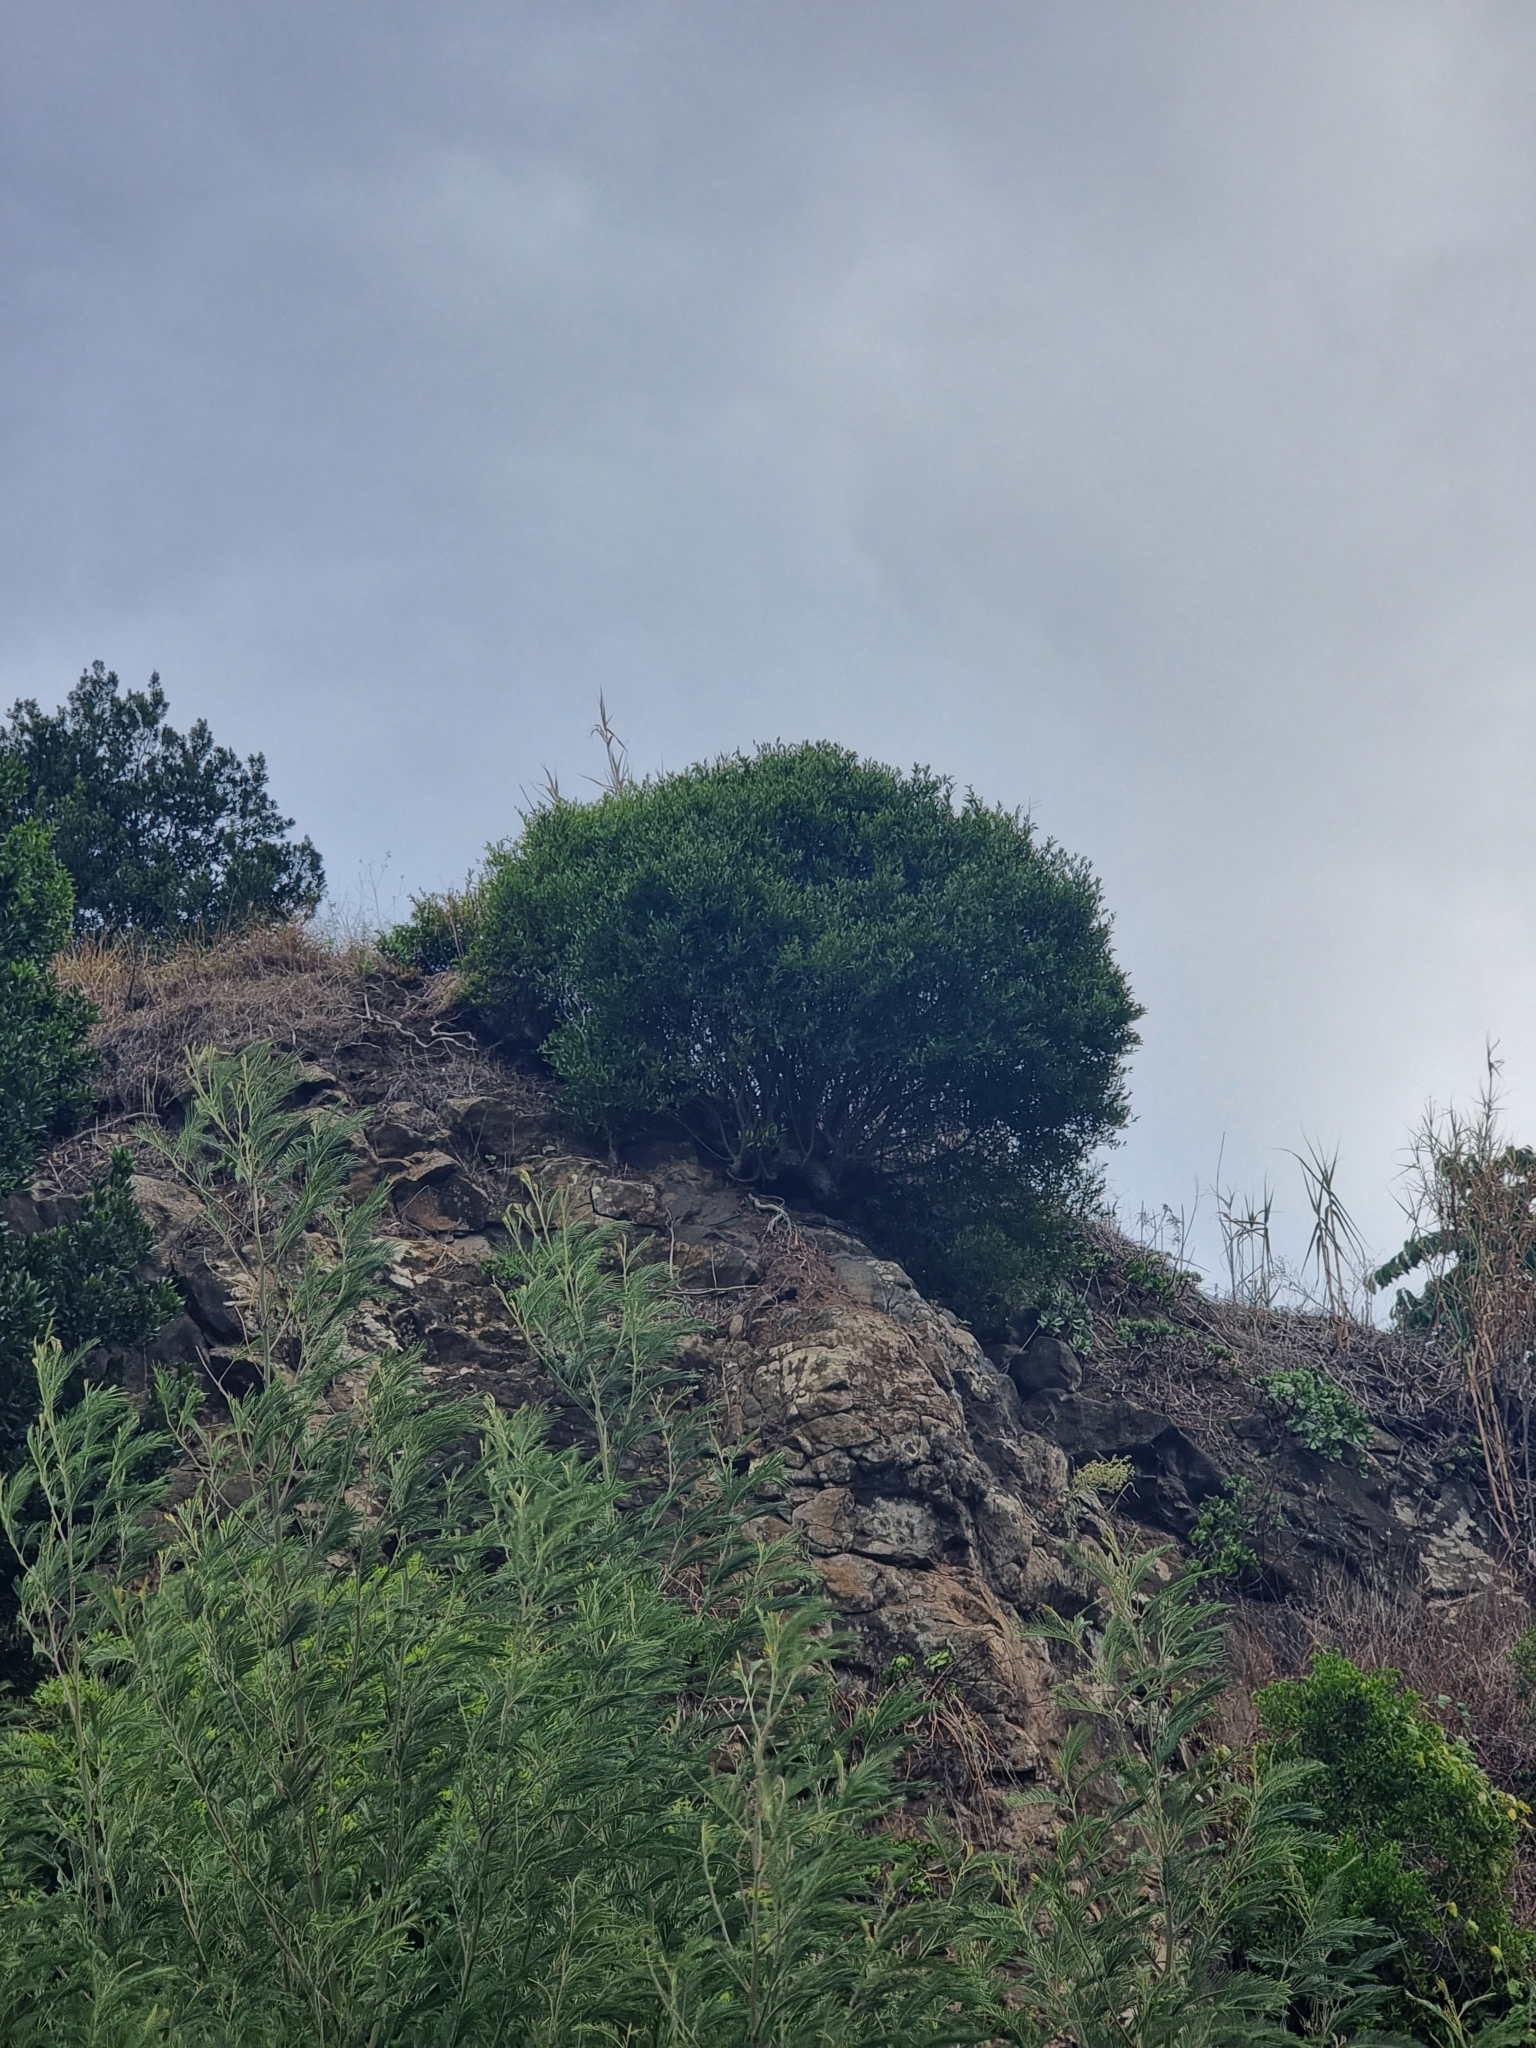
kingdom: Plantae
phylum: Tracheophyta
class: Magnoliopsida
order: Celastrales
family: Celastraceae
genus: Gymnosporia
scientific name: Gymnosporia dryandri
